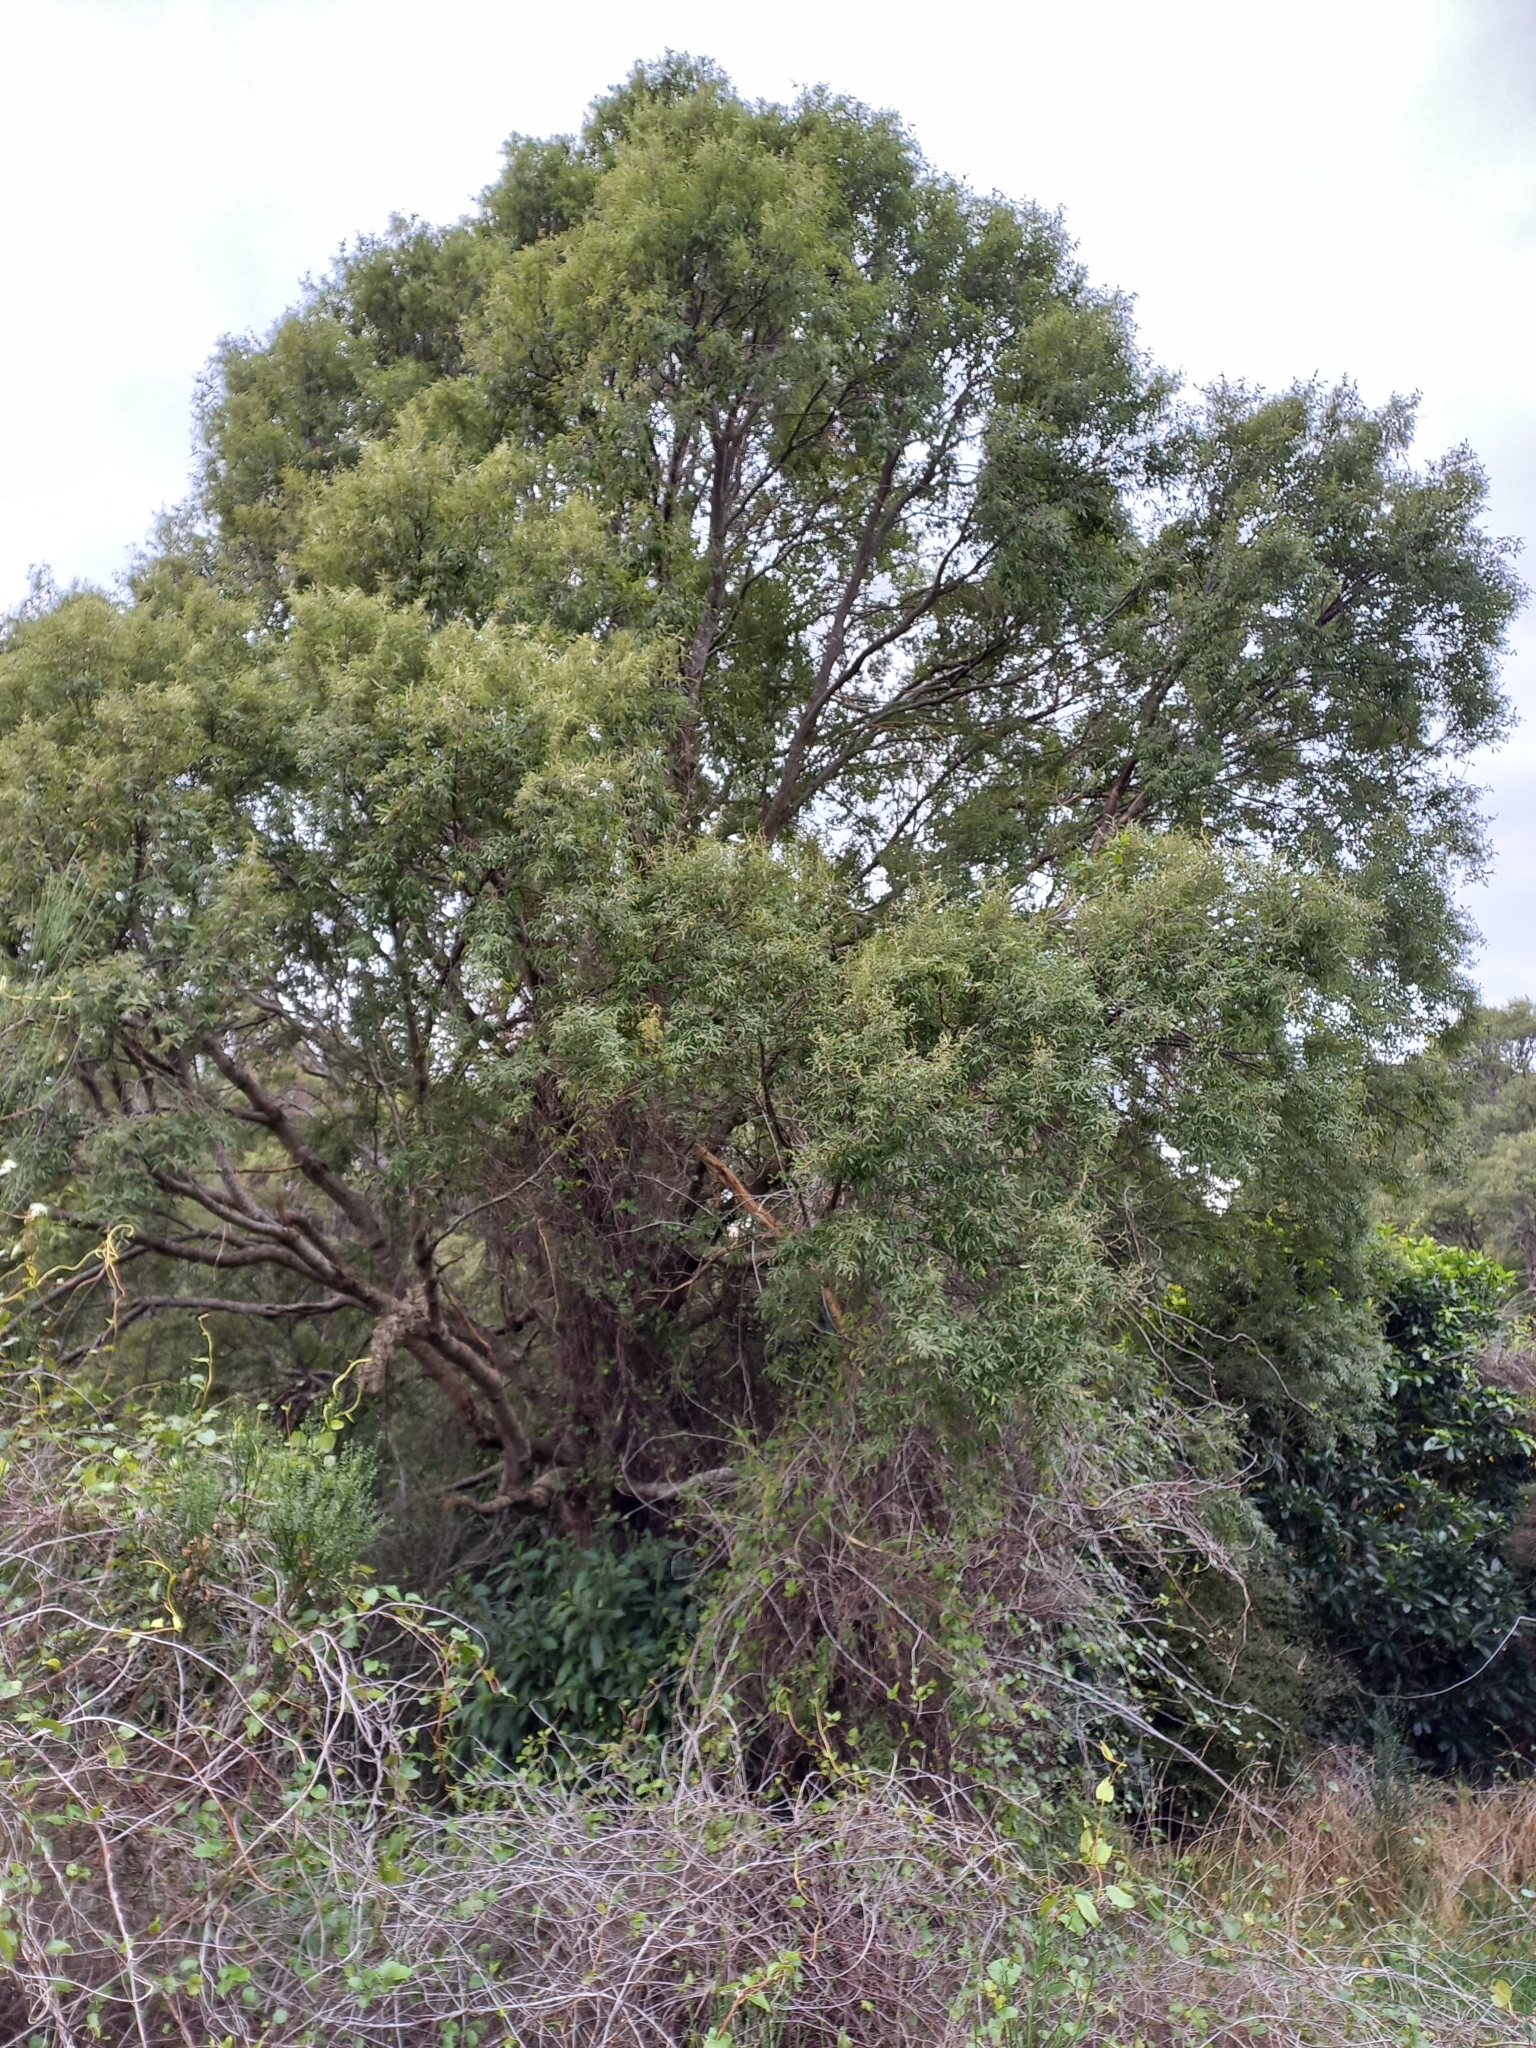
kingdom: Plantae
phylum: Tracheophyta
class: Magnoliopsida
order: Malvales
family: Malvaceae
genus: Hoheria
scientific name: Hoheria angustifolia
